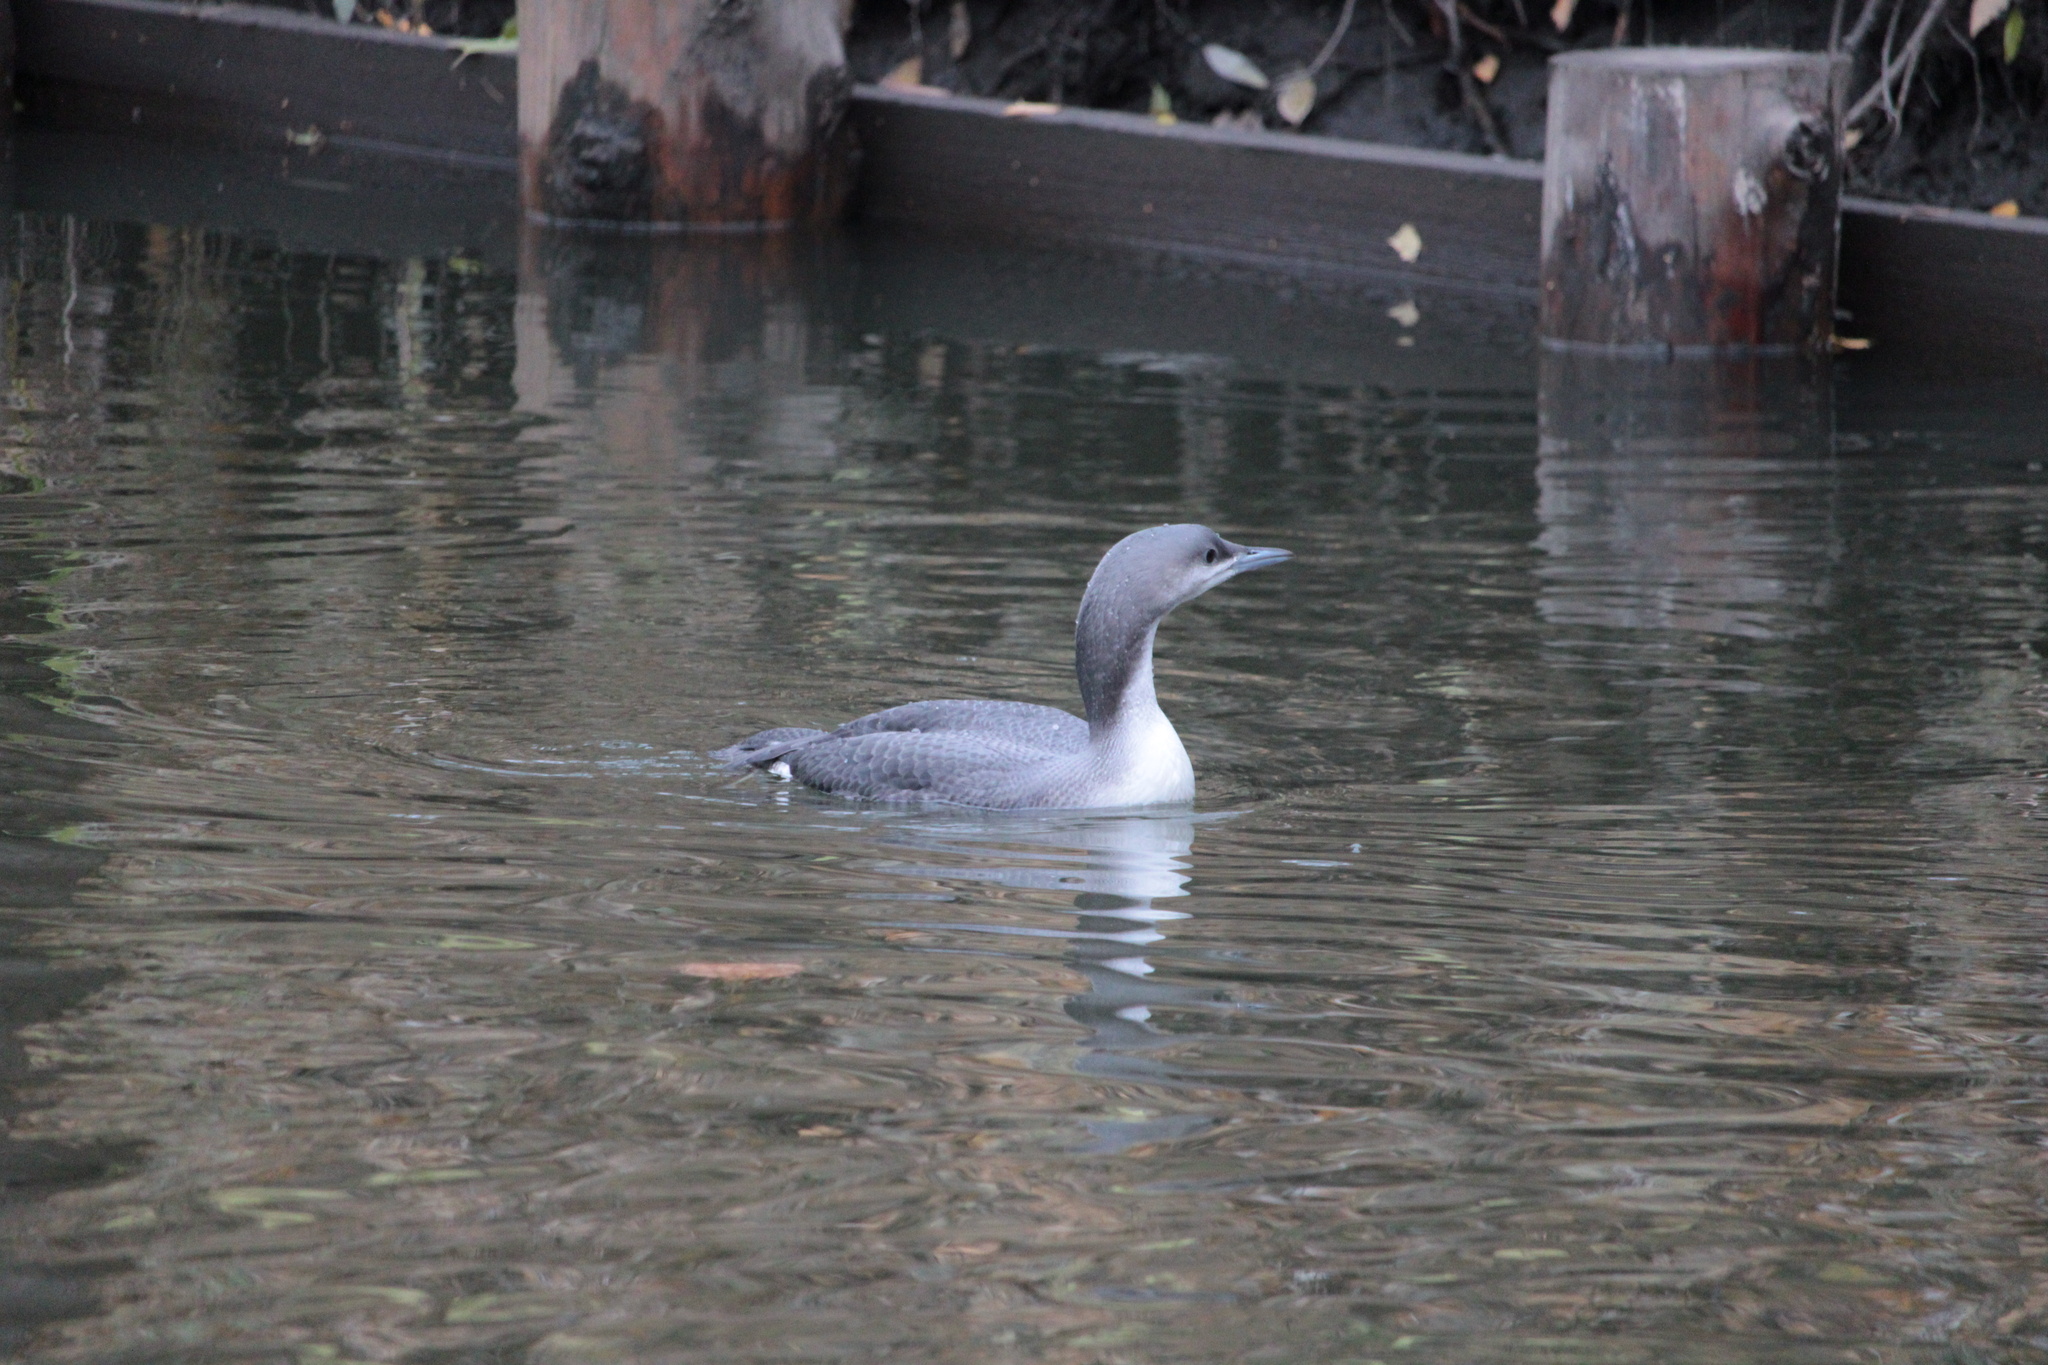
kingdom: Animalia
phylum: Chordata
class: Aves
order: Gaviiformes
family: Gaviidae
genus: Gavia
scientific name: Gavia arctica
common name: Black-throated loon
